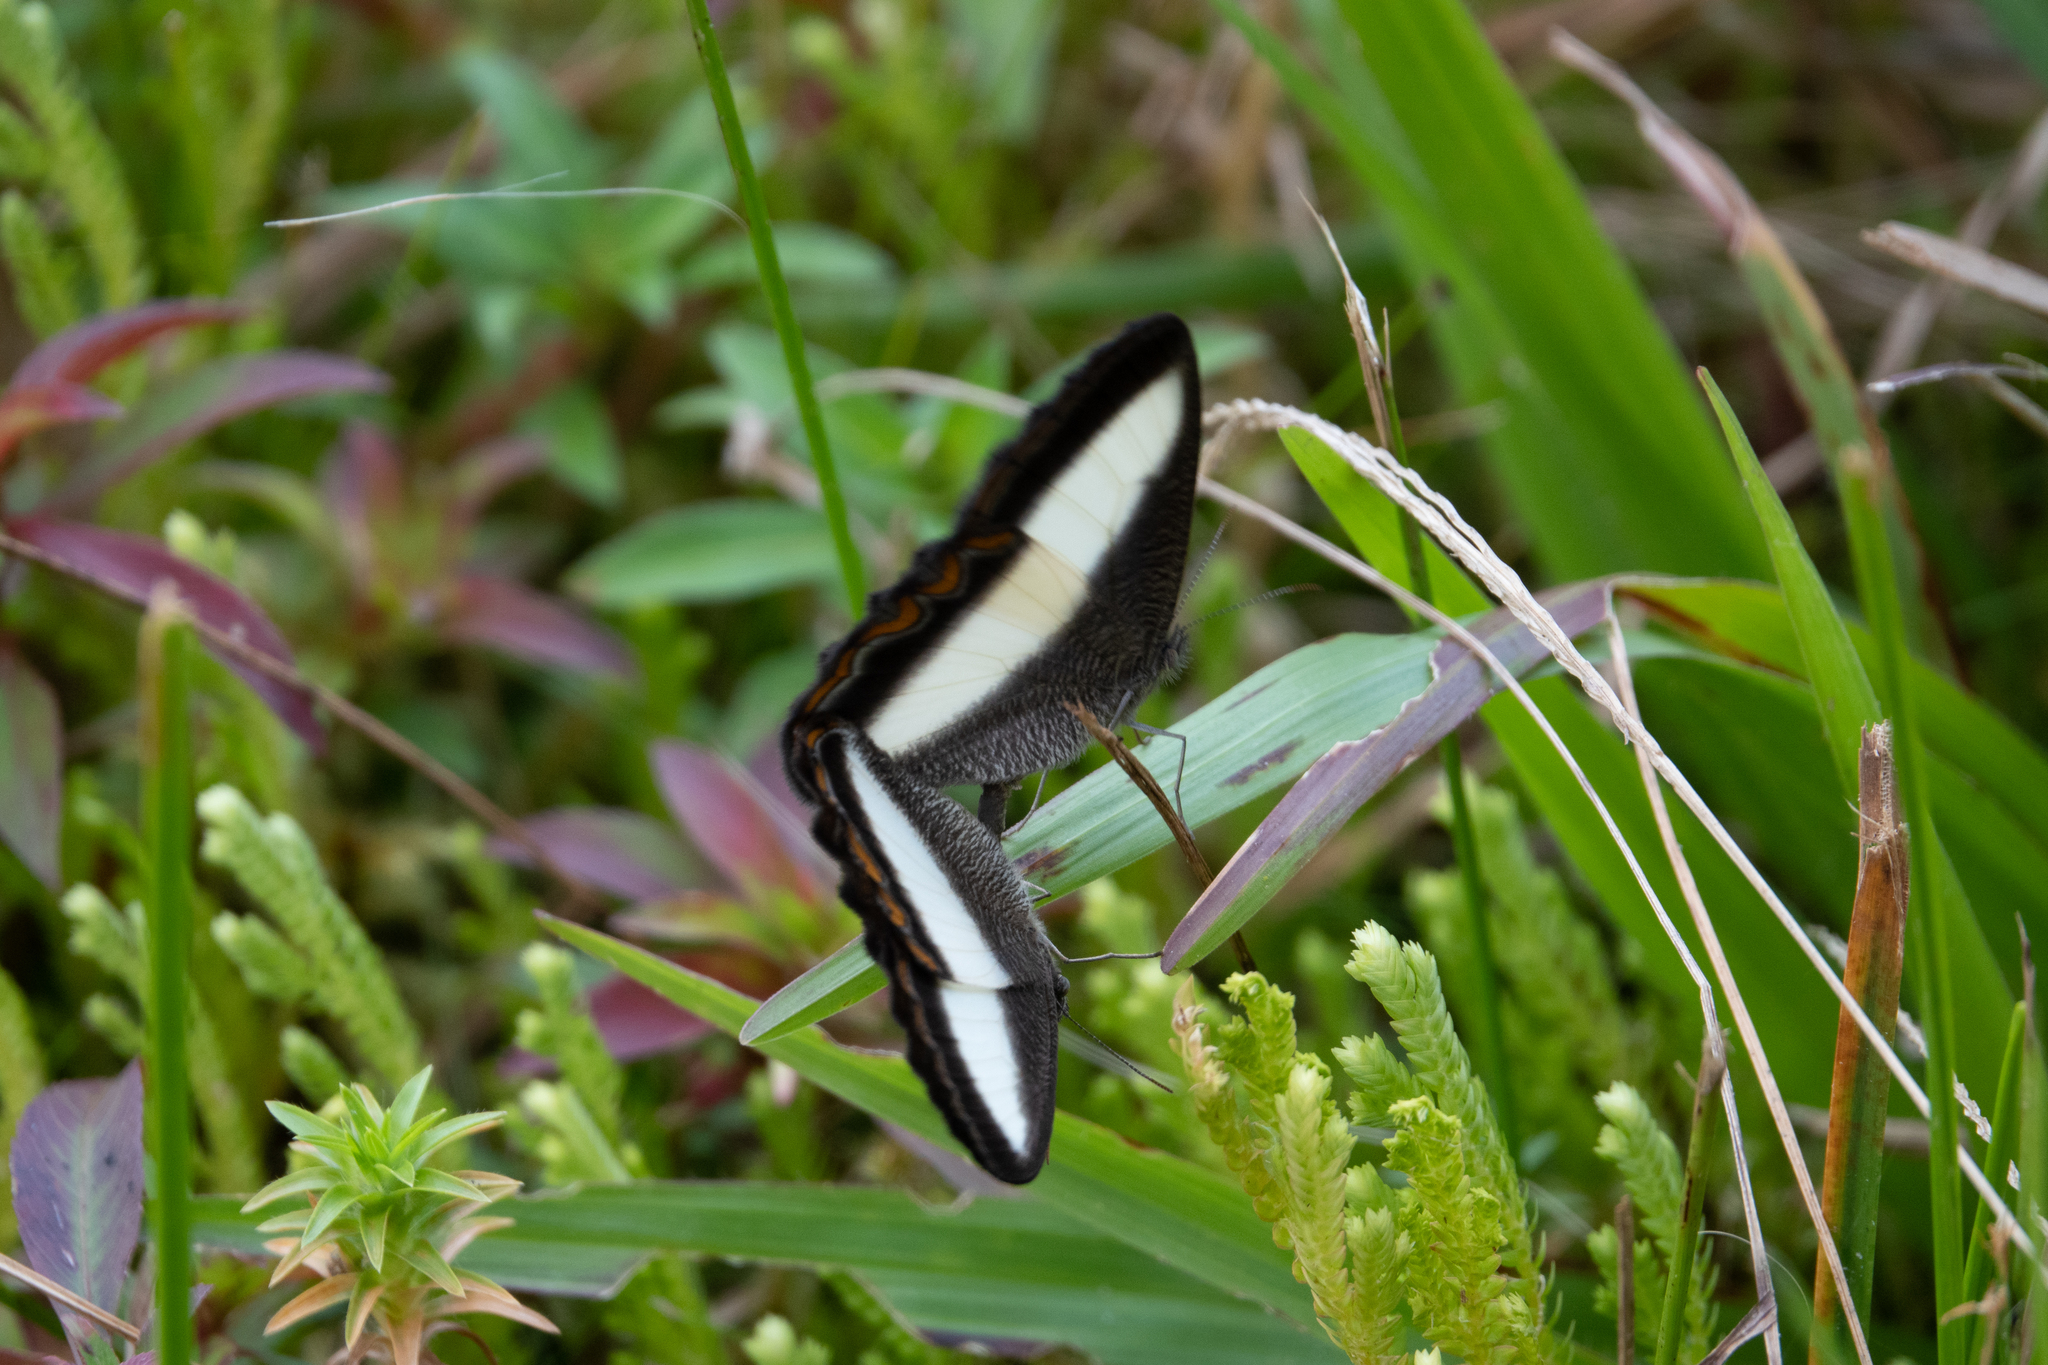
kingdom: Animalia
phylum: Arthropoda
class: Insecta
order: Lepidoptera
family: Nymphalidae
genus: Oressinoma
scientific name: Oressinoma typhla
